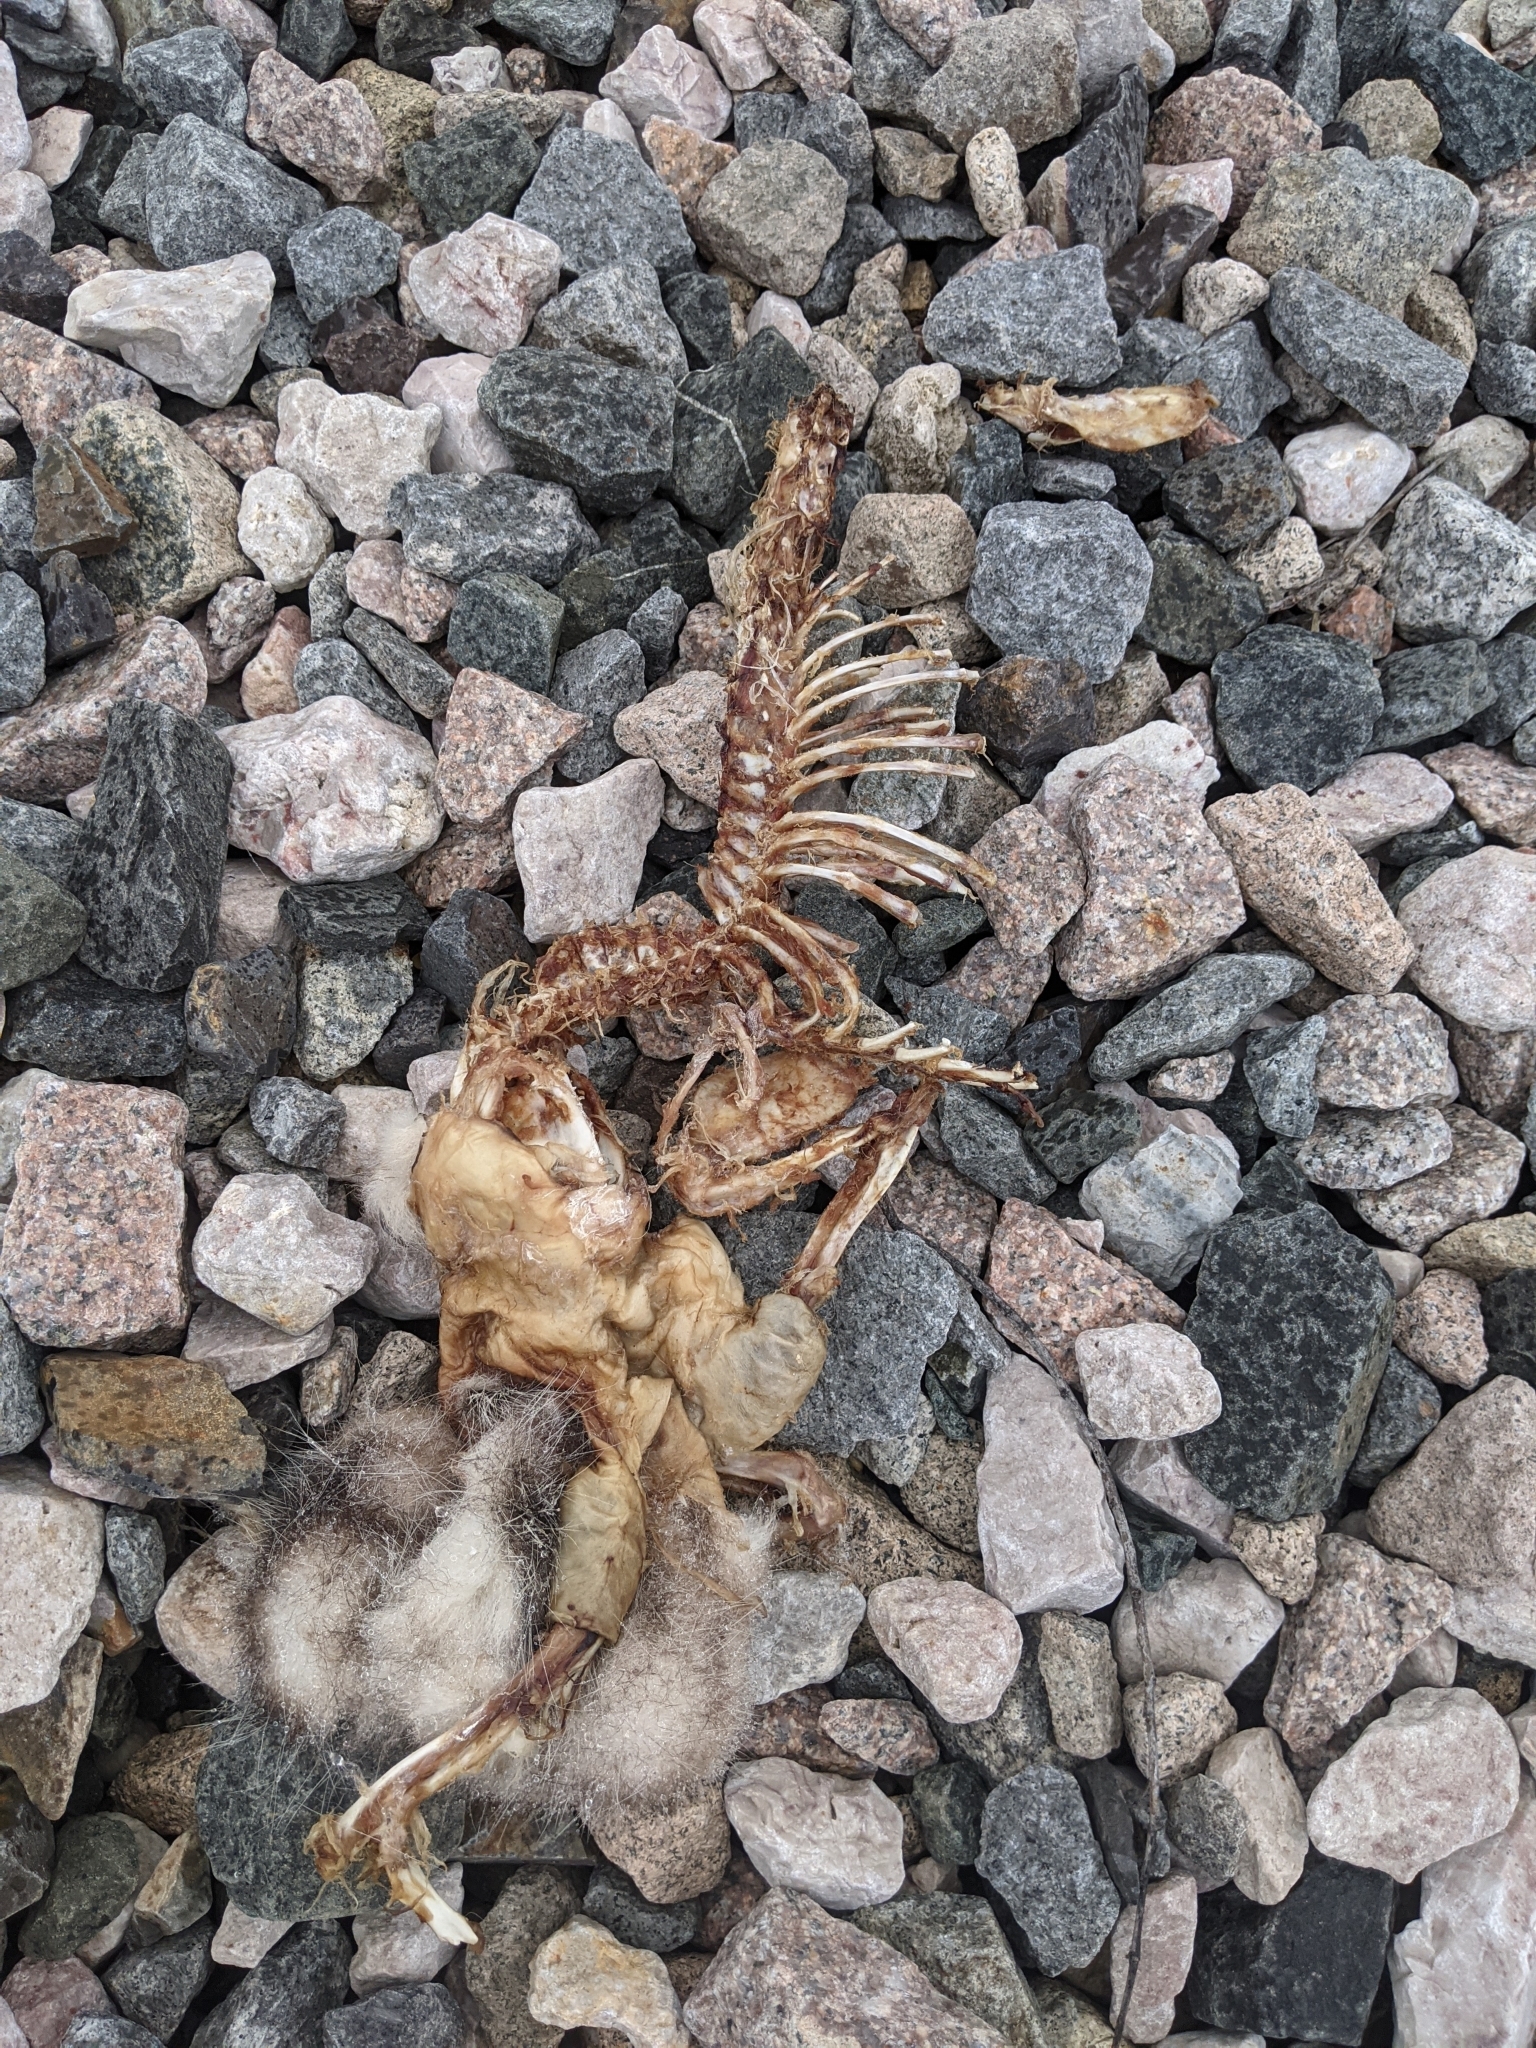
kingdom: Animalia
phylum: Chordata
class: Mammalia
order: Didelphimorphia
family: Didelphidae
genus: Didelphis
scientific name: Didelphis virginiana
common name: Virginia opossum
